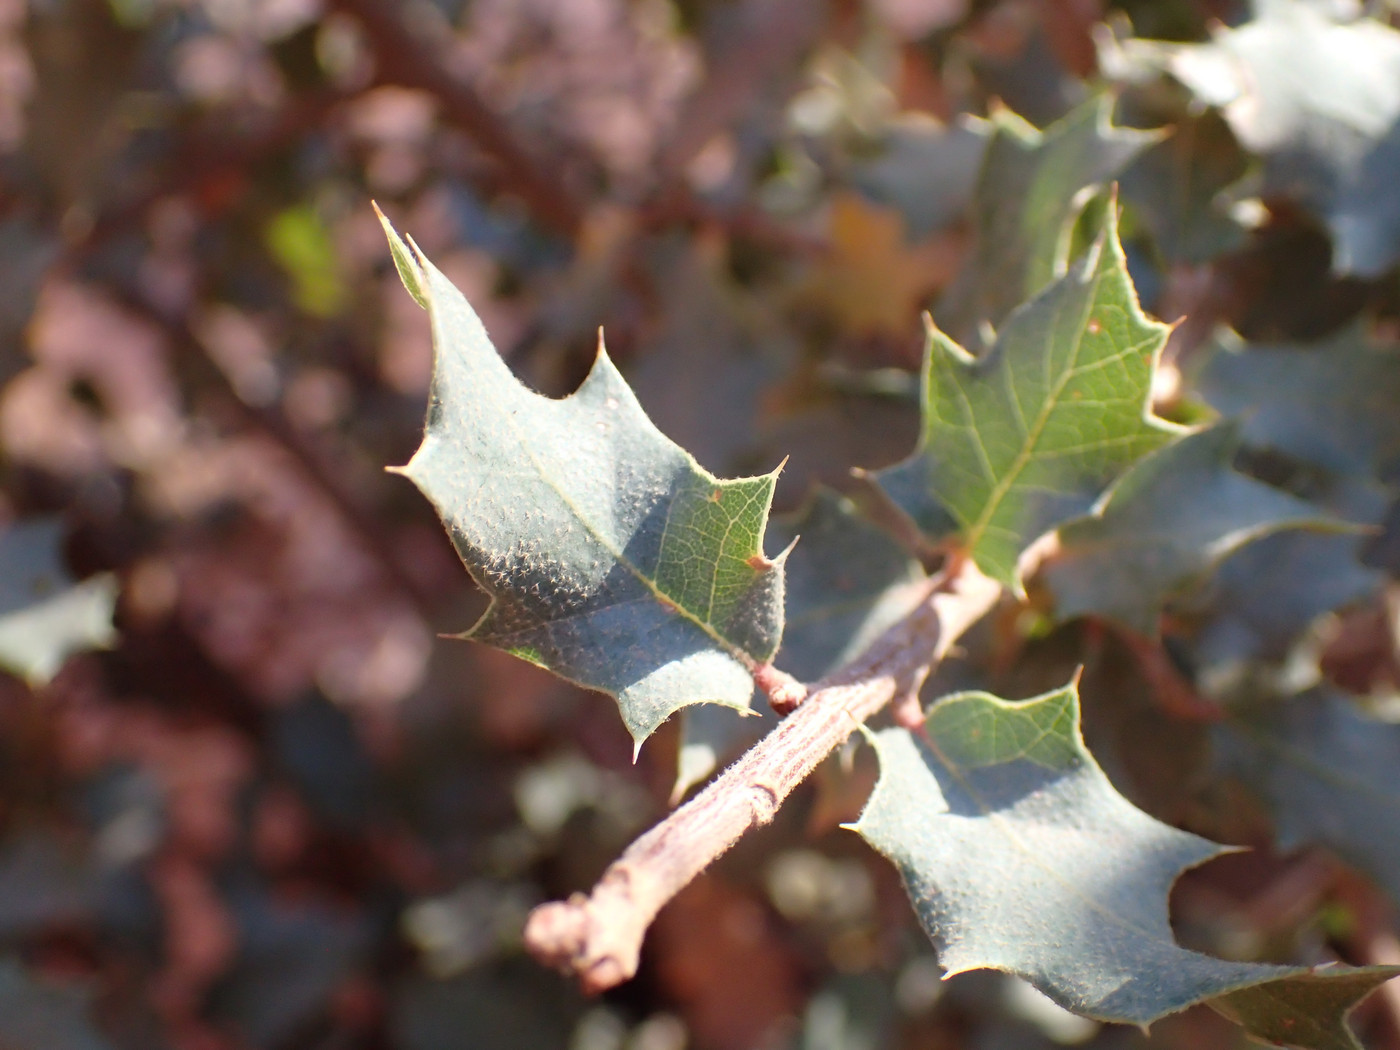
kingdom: Animalia
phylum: Arthropoda
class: Insecta
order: Hymenoptera
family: Cynipidae
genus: Andricus
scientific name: Andricus
